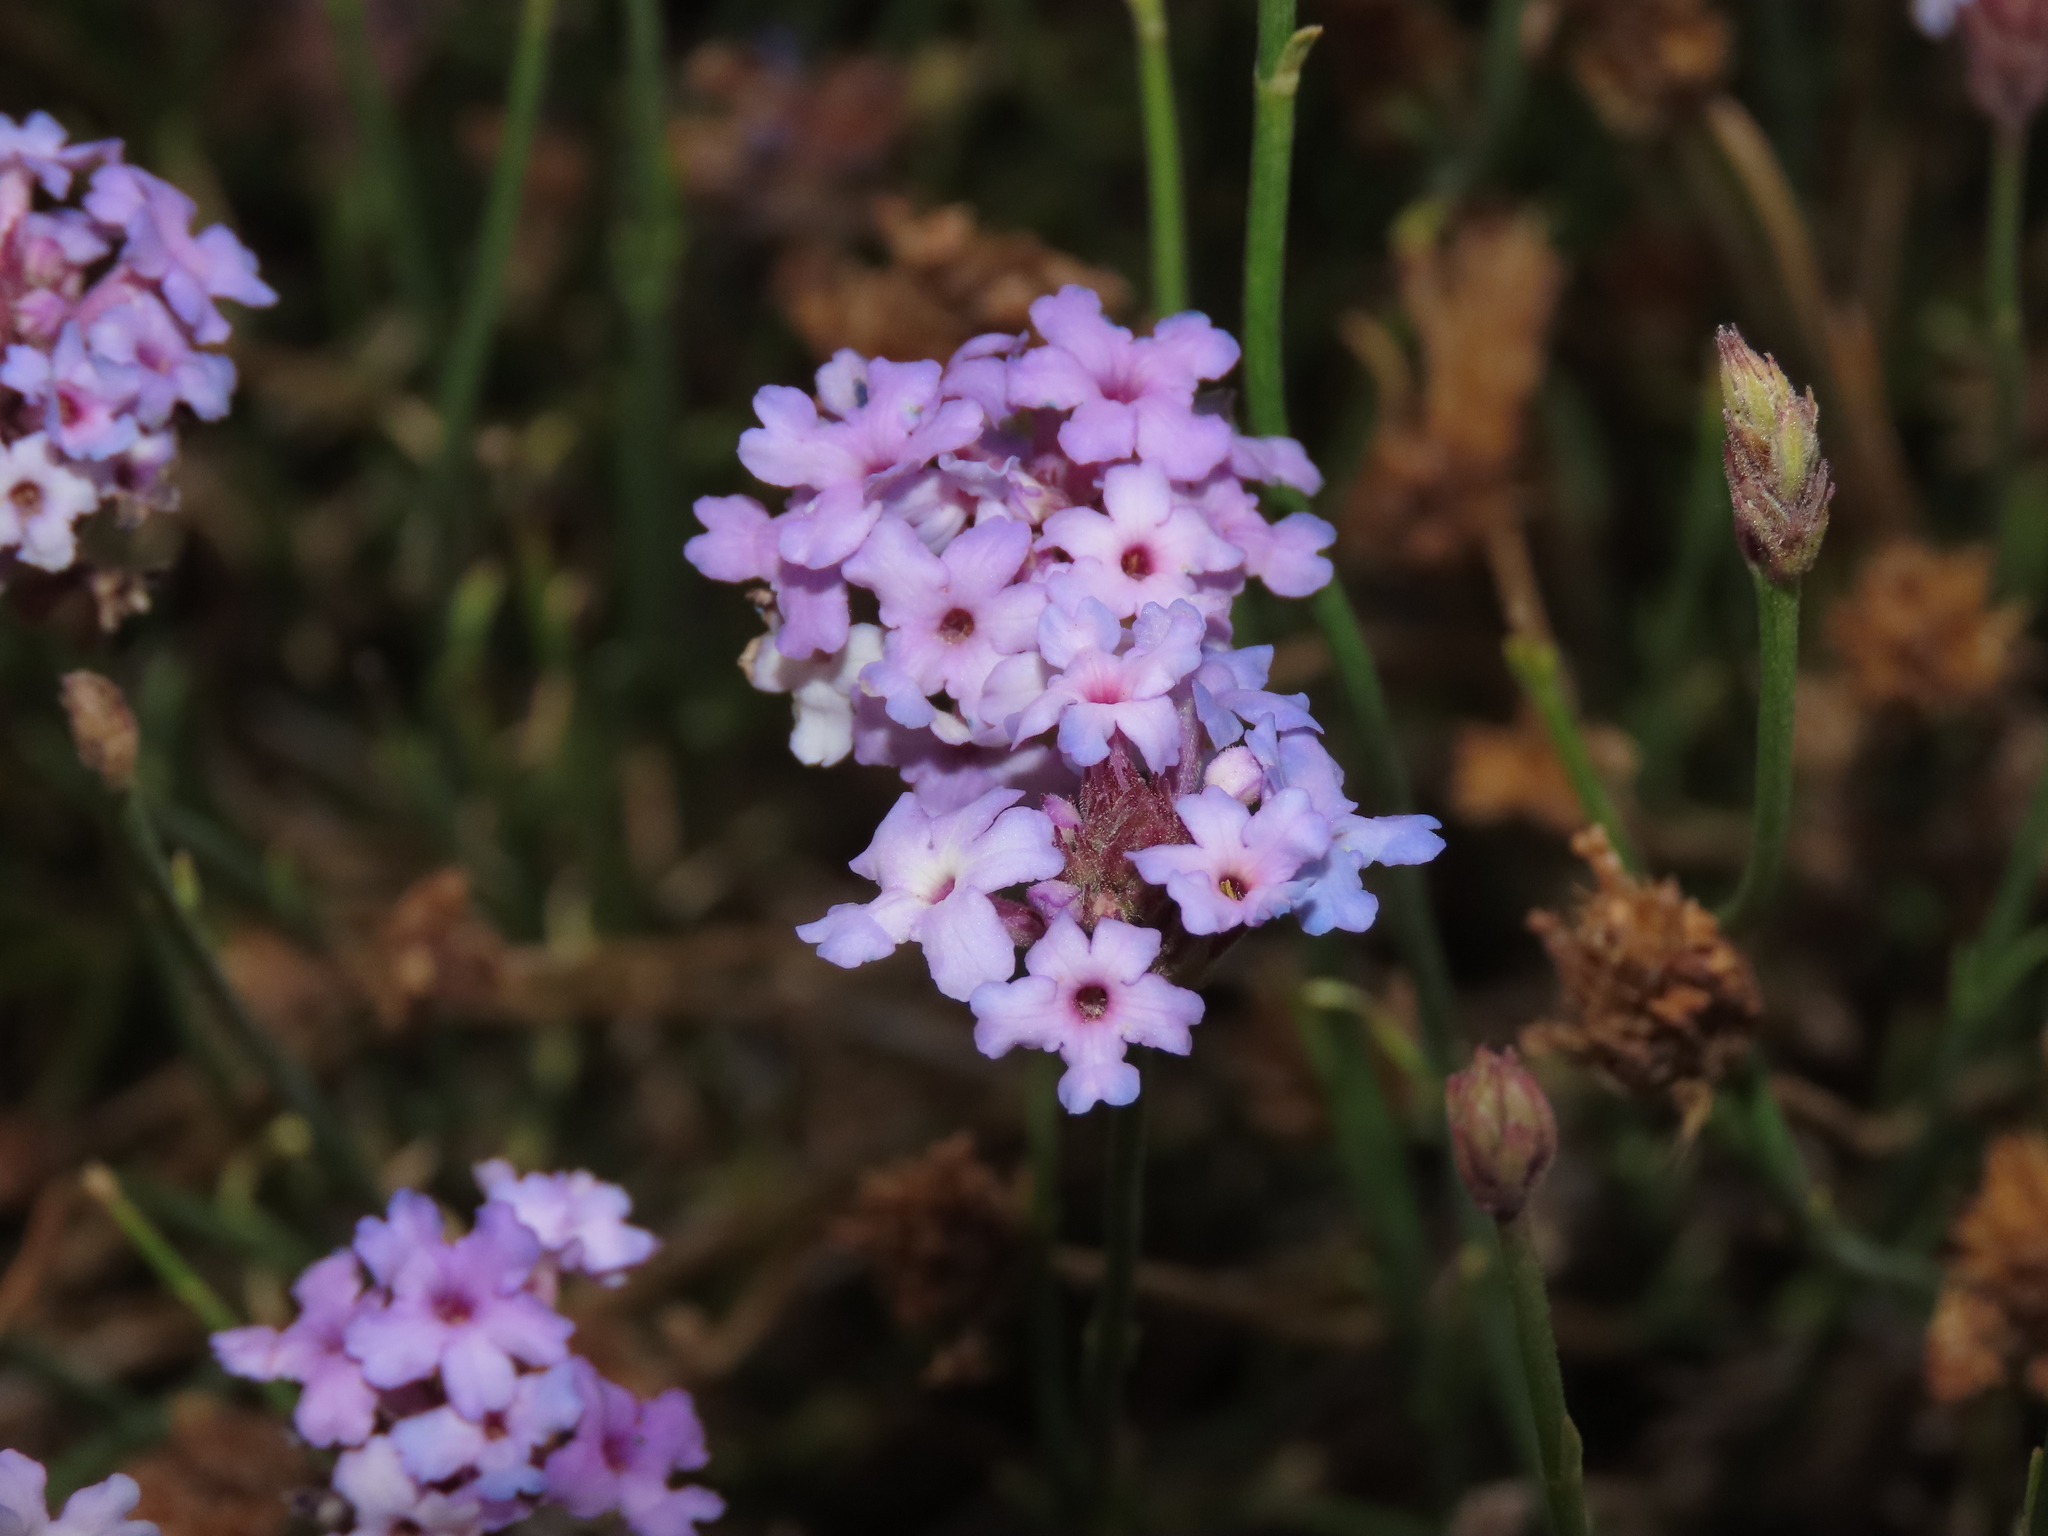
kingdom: Plantae
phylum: Tracheophyta
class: Magnoliopsida
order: Lamiales
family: Verbenaceae
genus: Junellia
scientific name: Junellia spathulata
